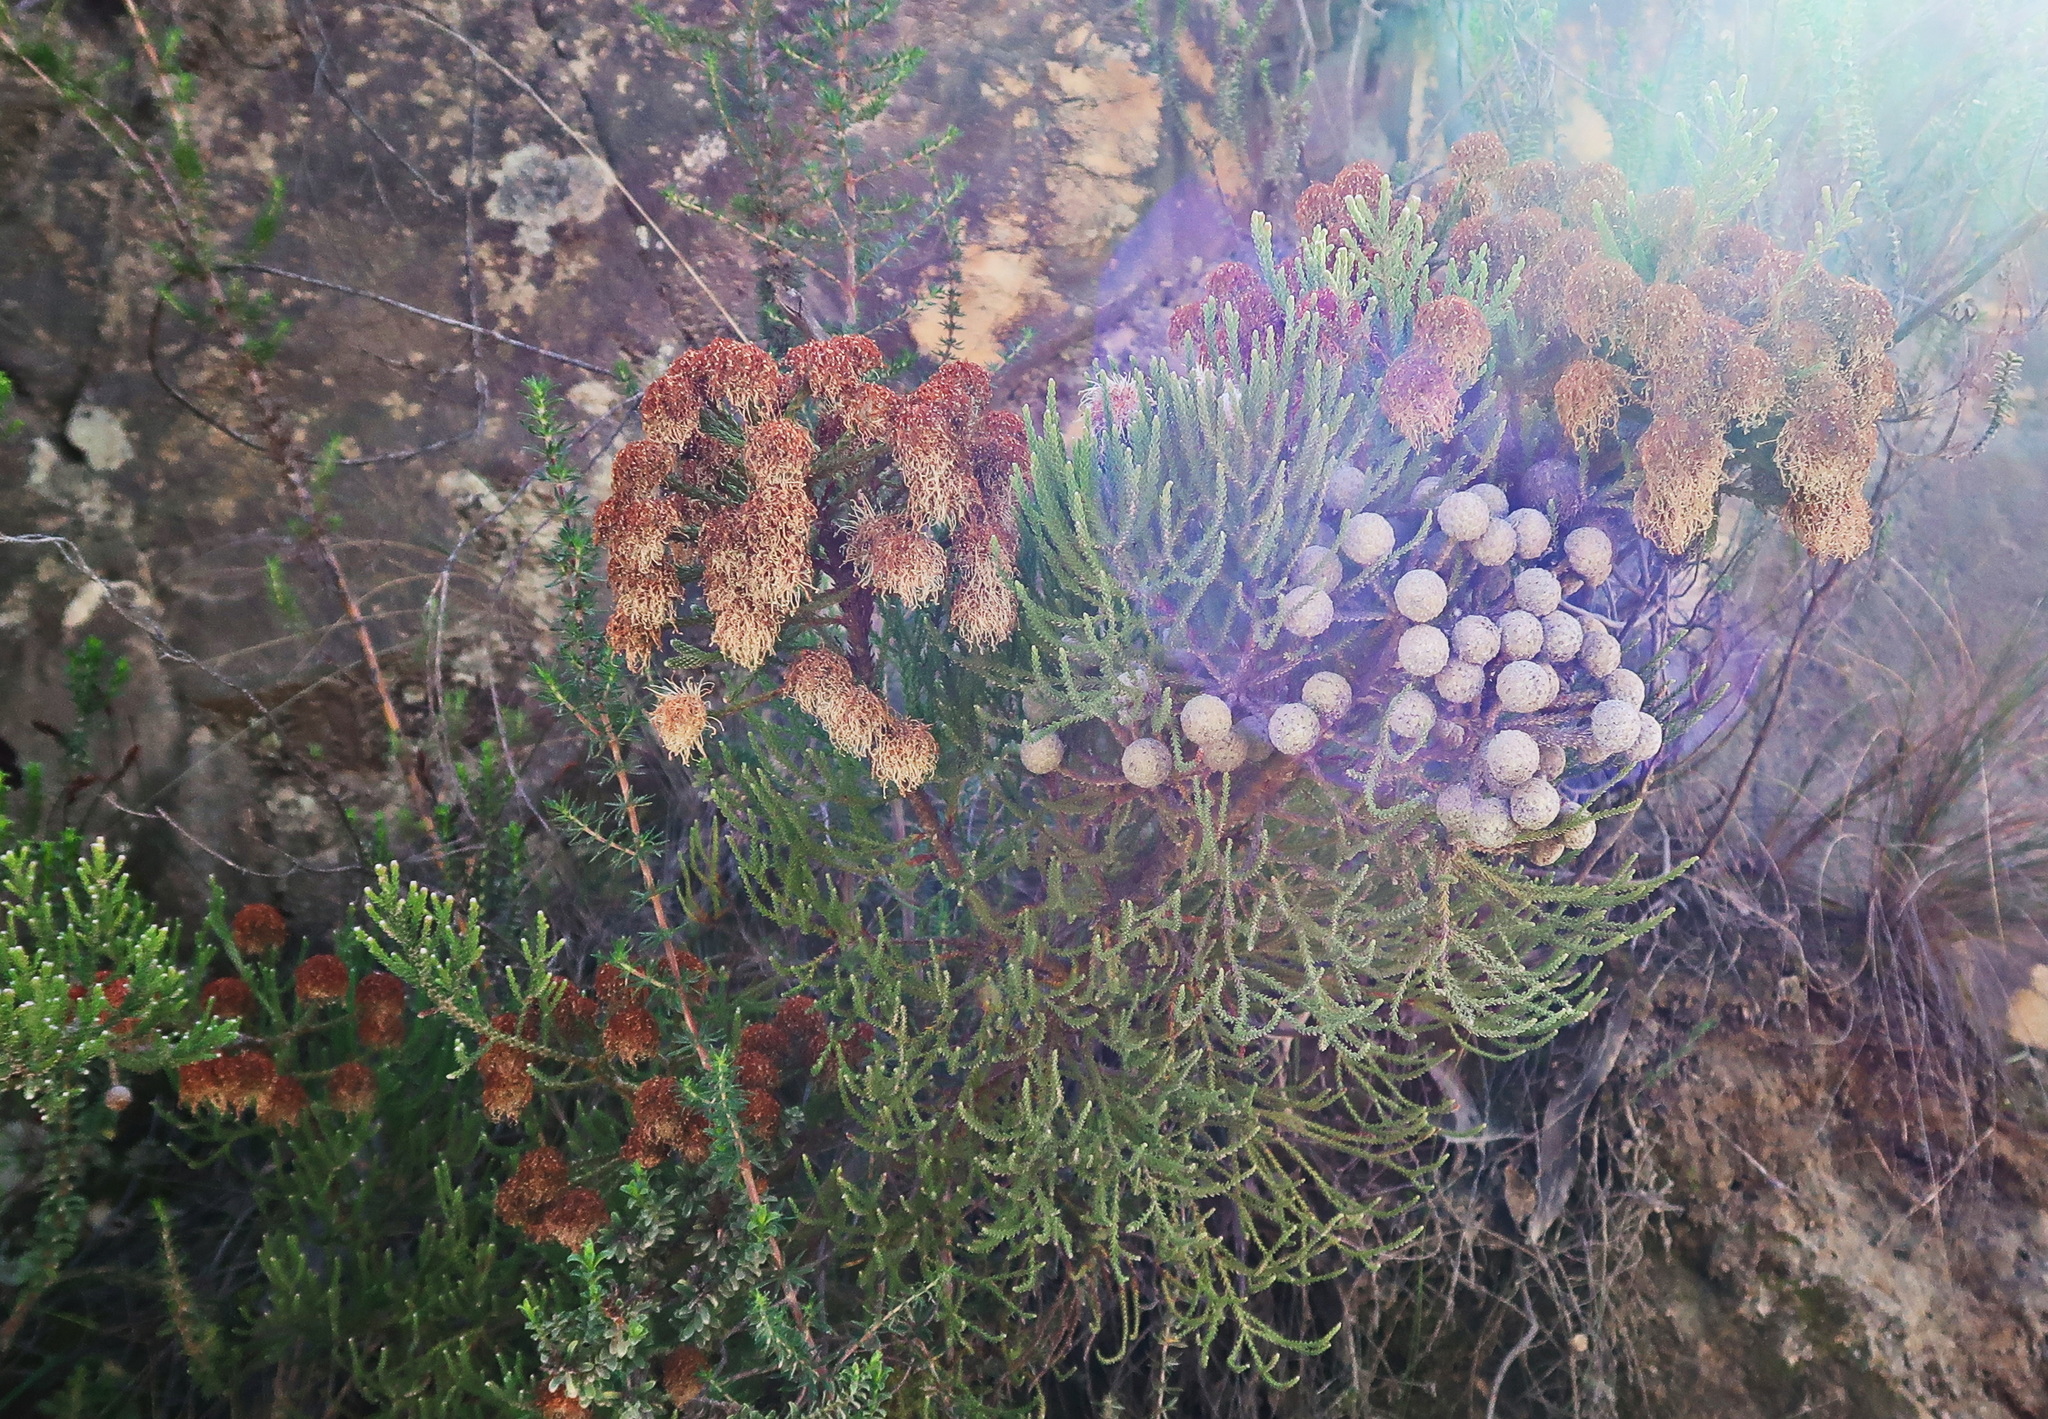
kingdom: Plantae
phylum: Tracheophyta
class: Magnoliopsida
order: Bruniales
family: Bruniaceae
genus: Brunia
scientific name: Brunia noduliflora
